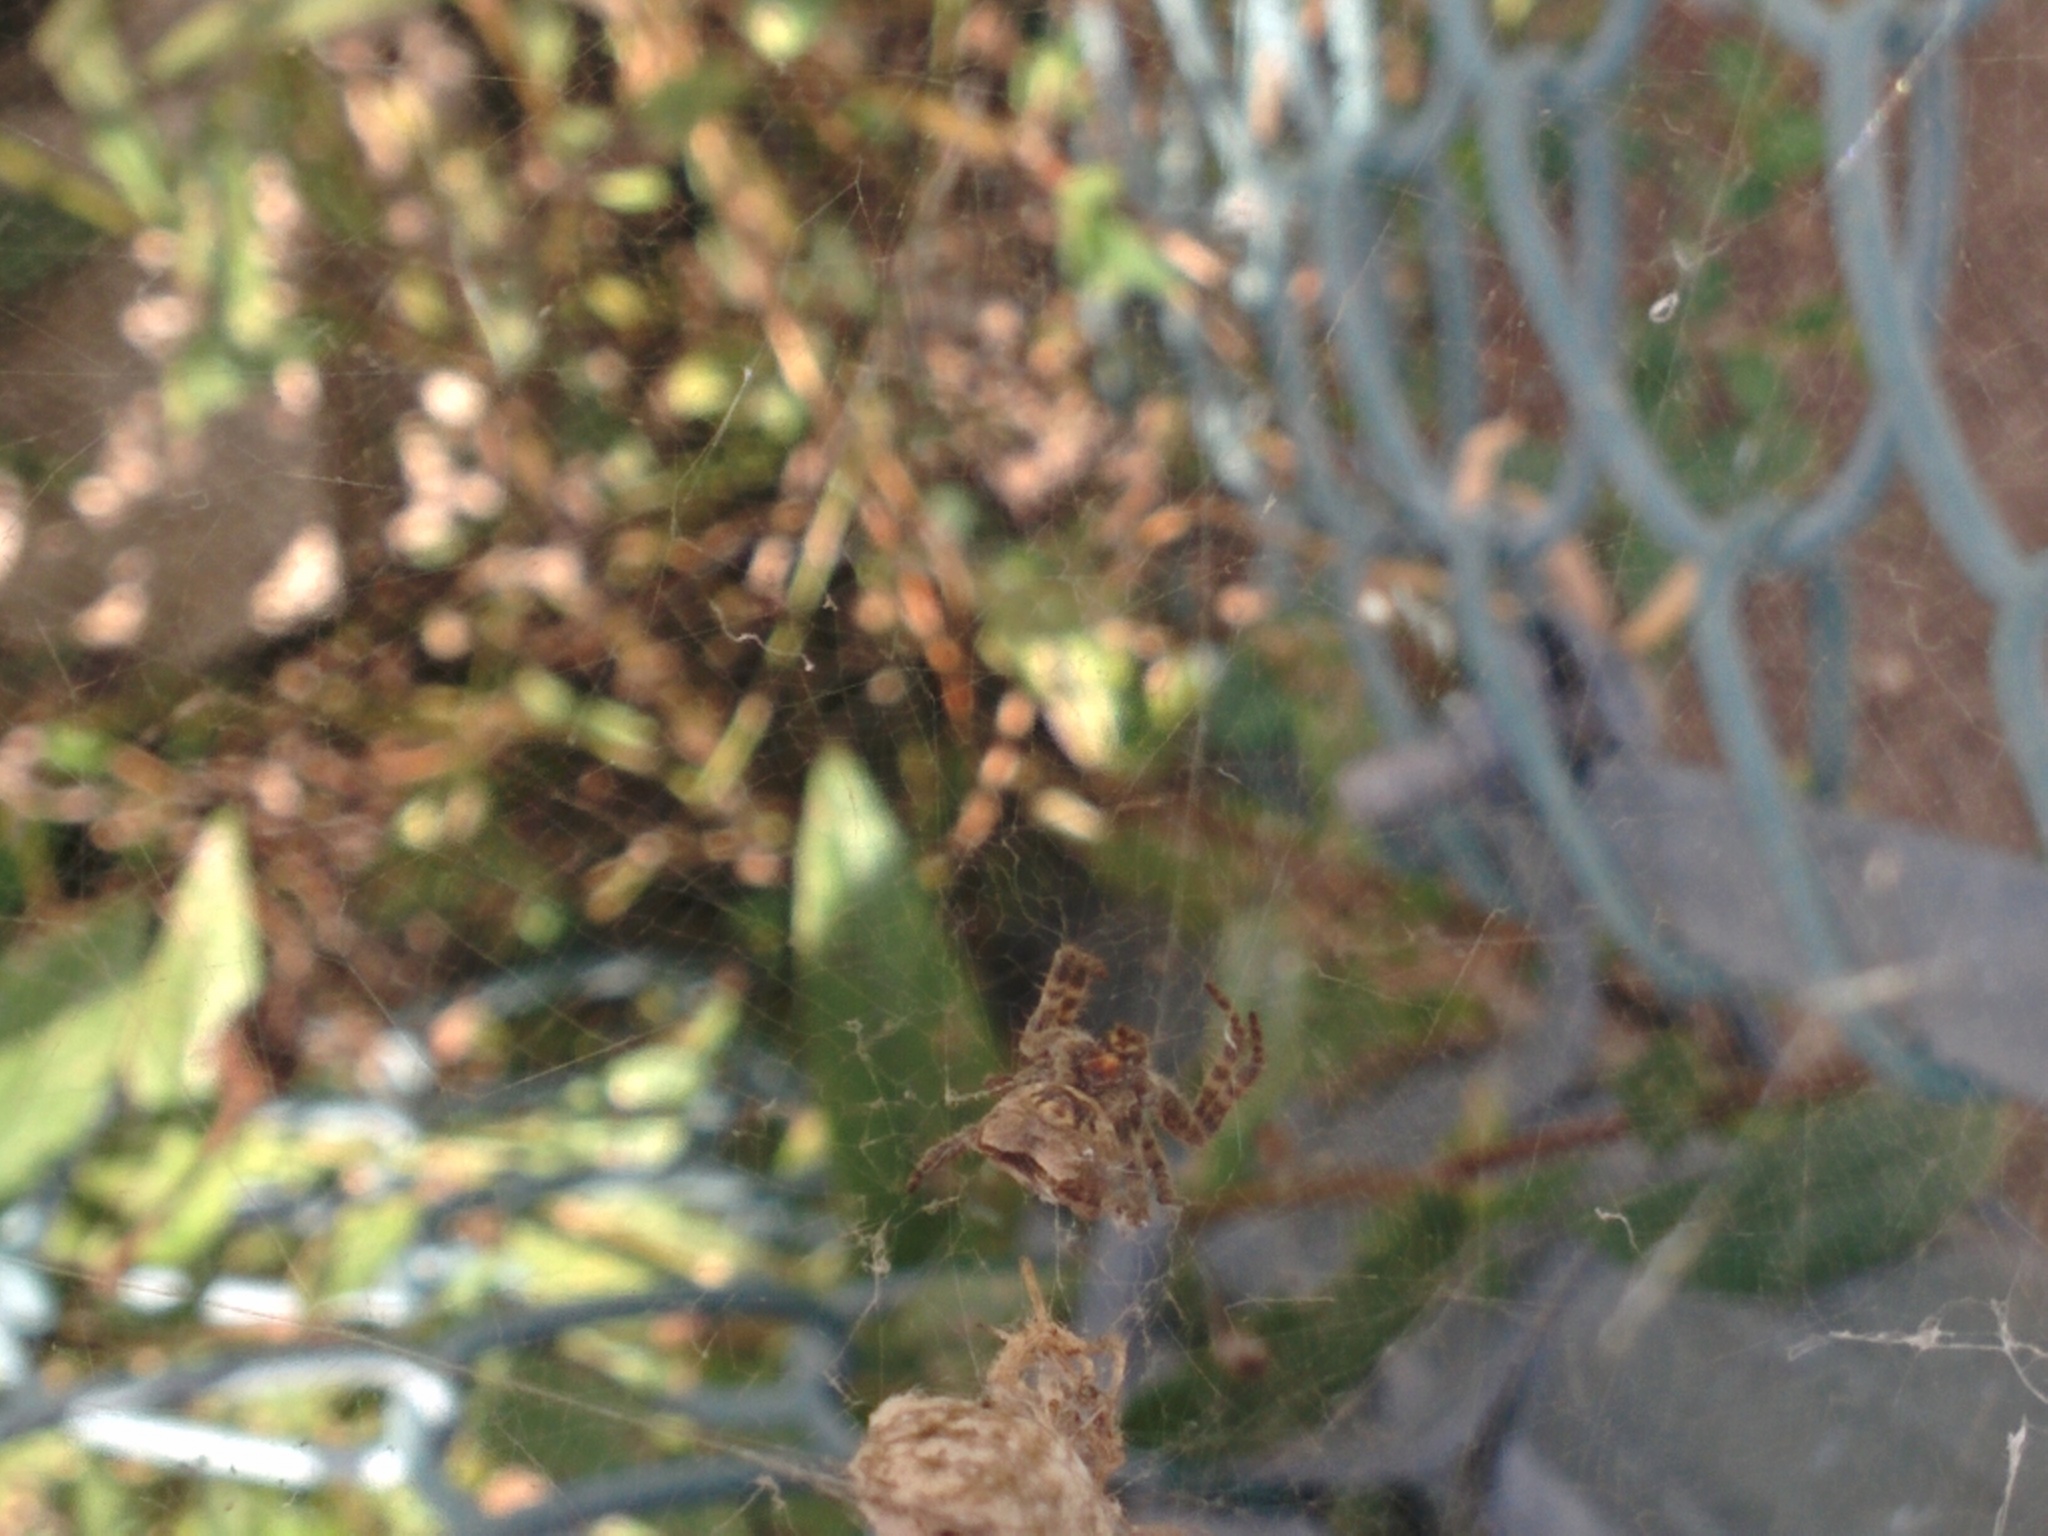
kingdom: Animalia
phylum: Arthropoda
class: Arachnida
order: Araneae
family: Araneidae
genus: Cyrtophora
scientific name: Cyrtophora citricola
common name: Orb weavers
